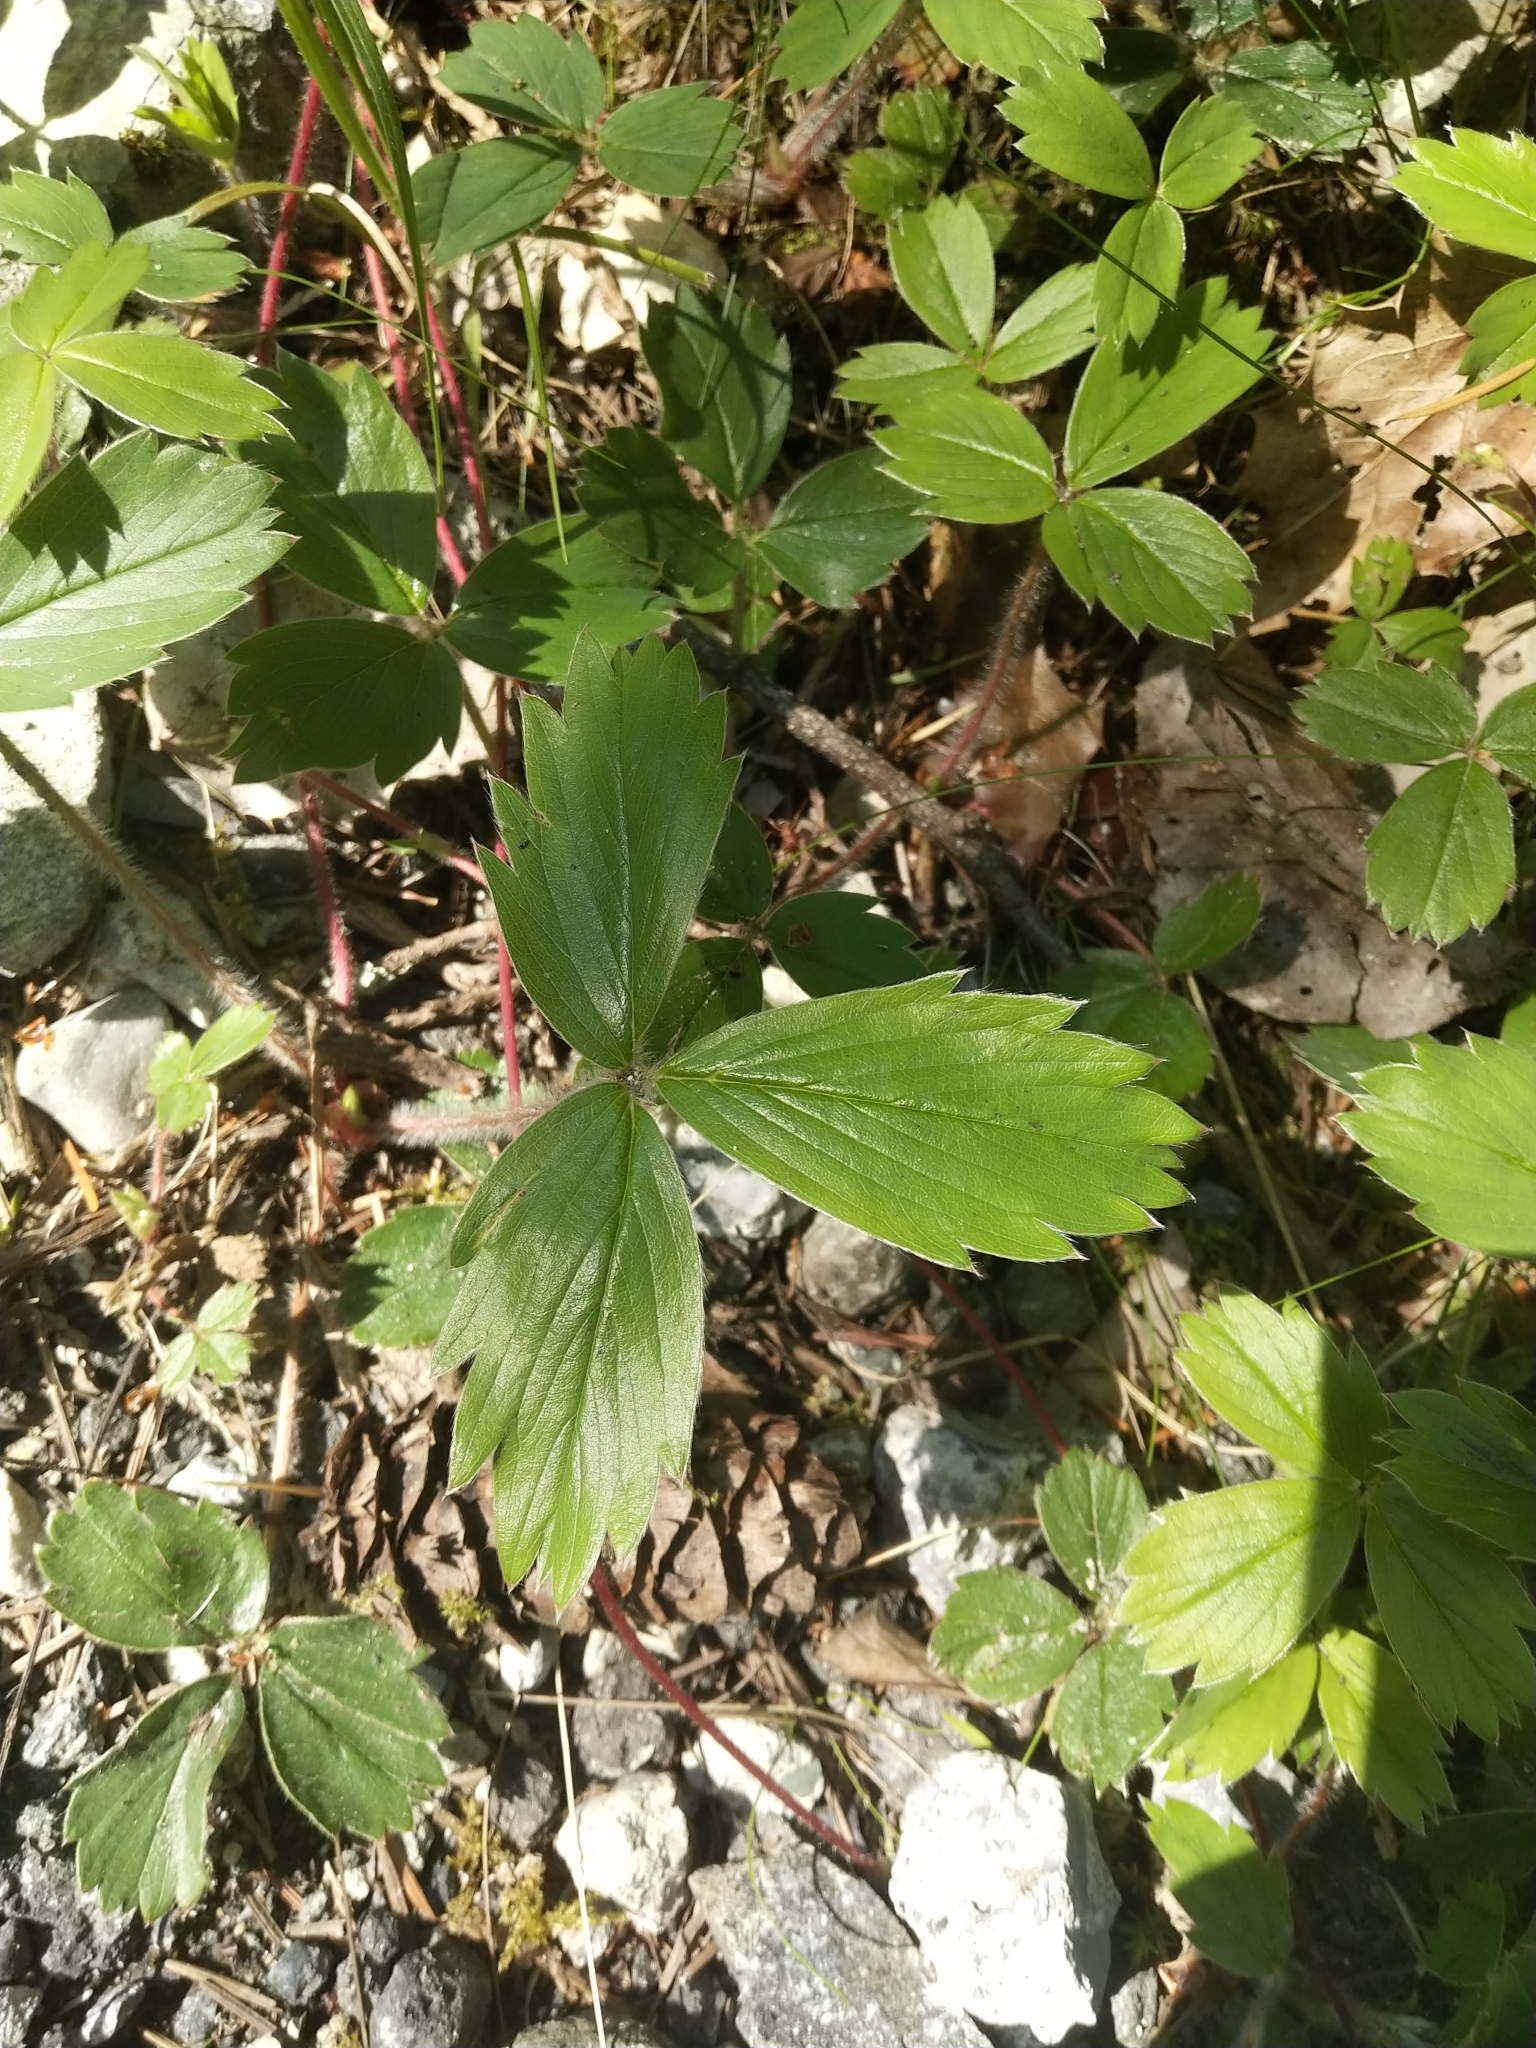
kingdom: Plantae
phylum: Tracheophyta
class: Magnoliopsida
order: Rosales
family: Rosaceae
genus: Fragaria
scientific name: Fragaria ananassa
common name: Garden strawberry
